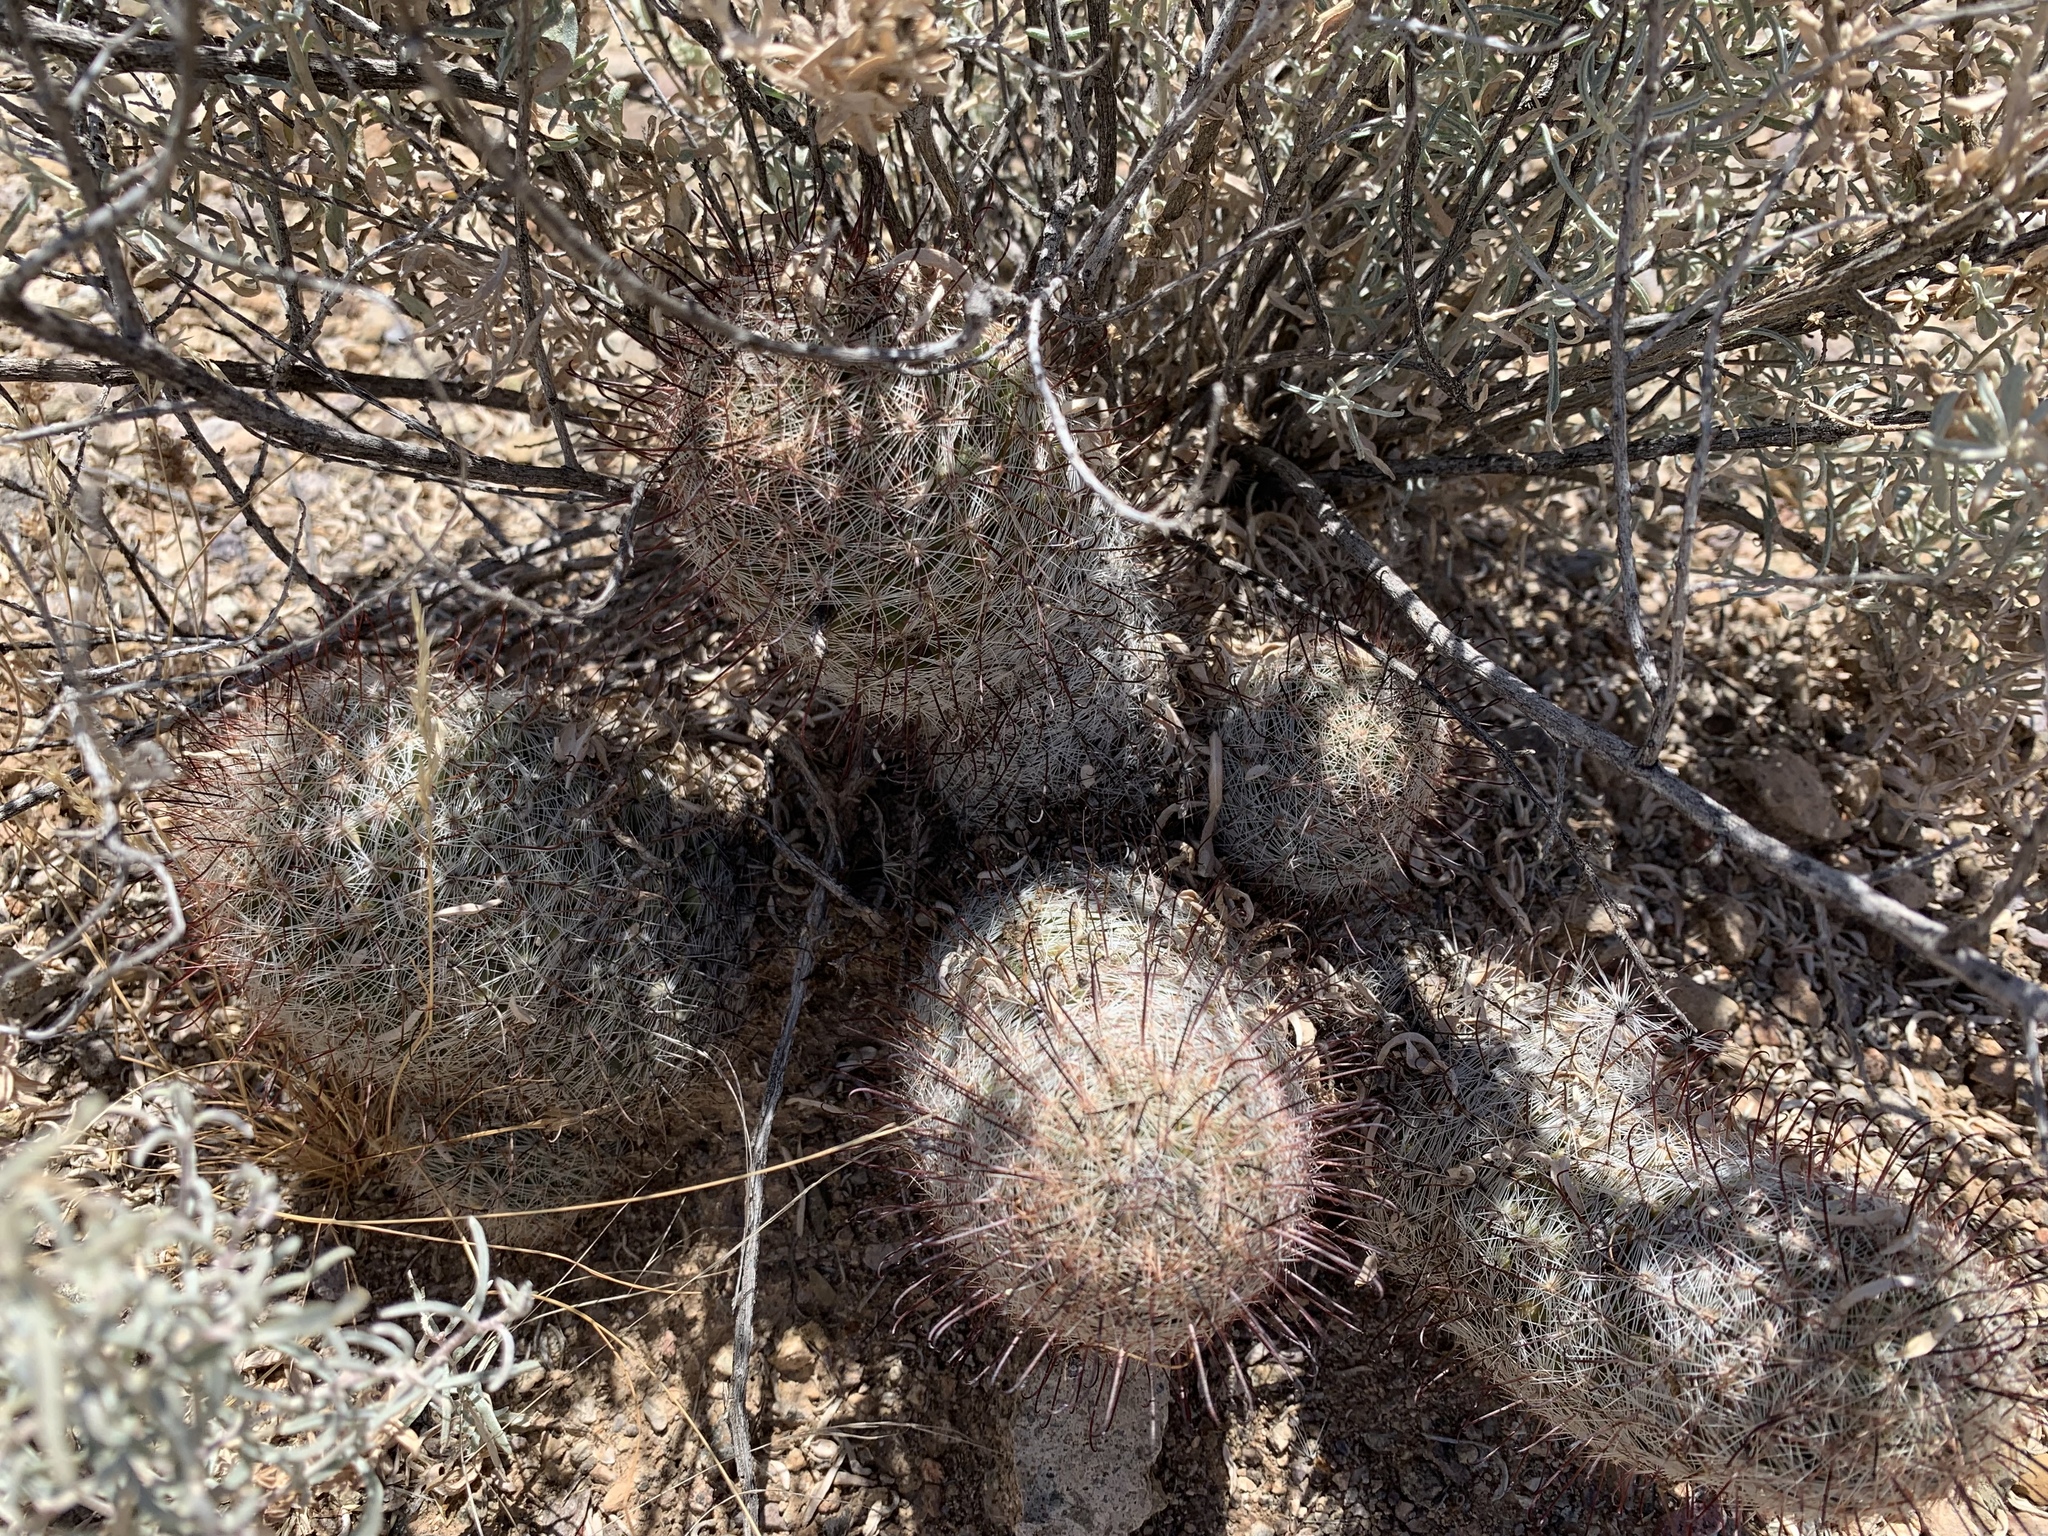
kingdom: Plantae
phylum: Tracheophyta
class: Magnoliopsida
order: Caryophyllales
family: Cactaceae
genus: Cochemiea
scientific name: Cochemiea grahamii
